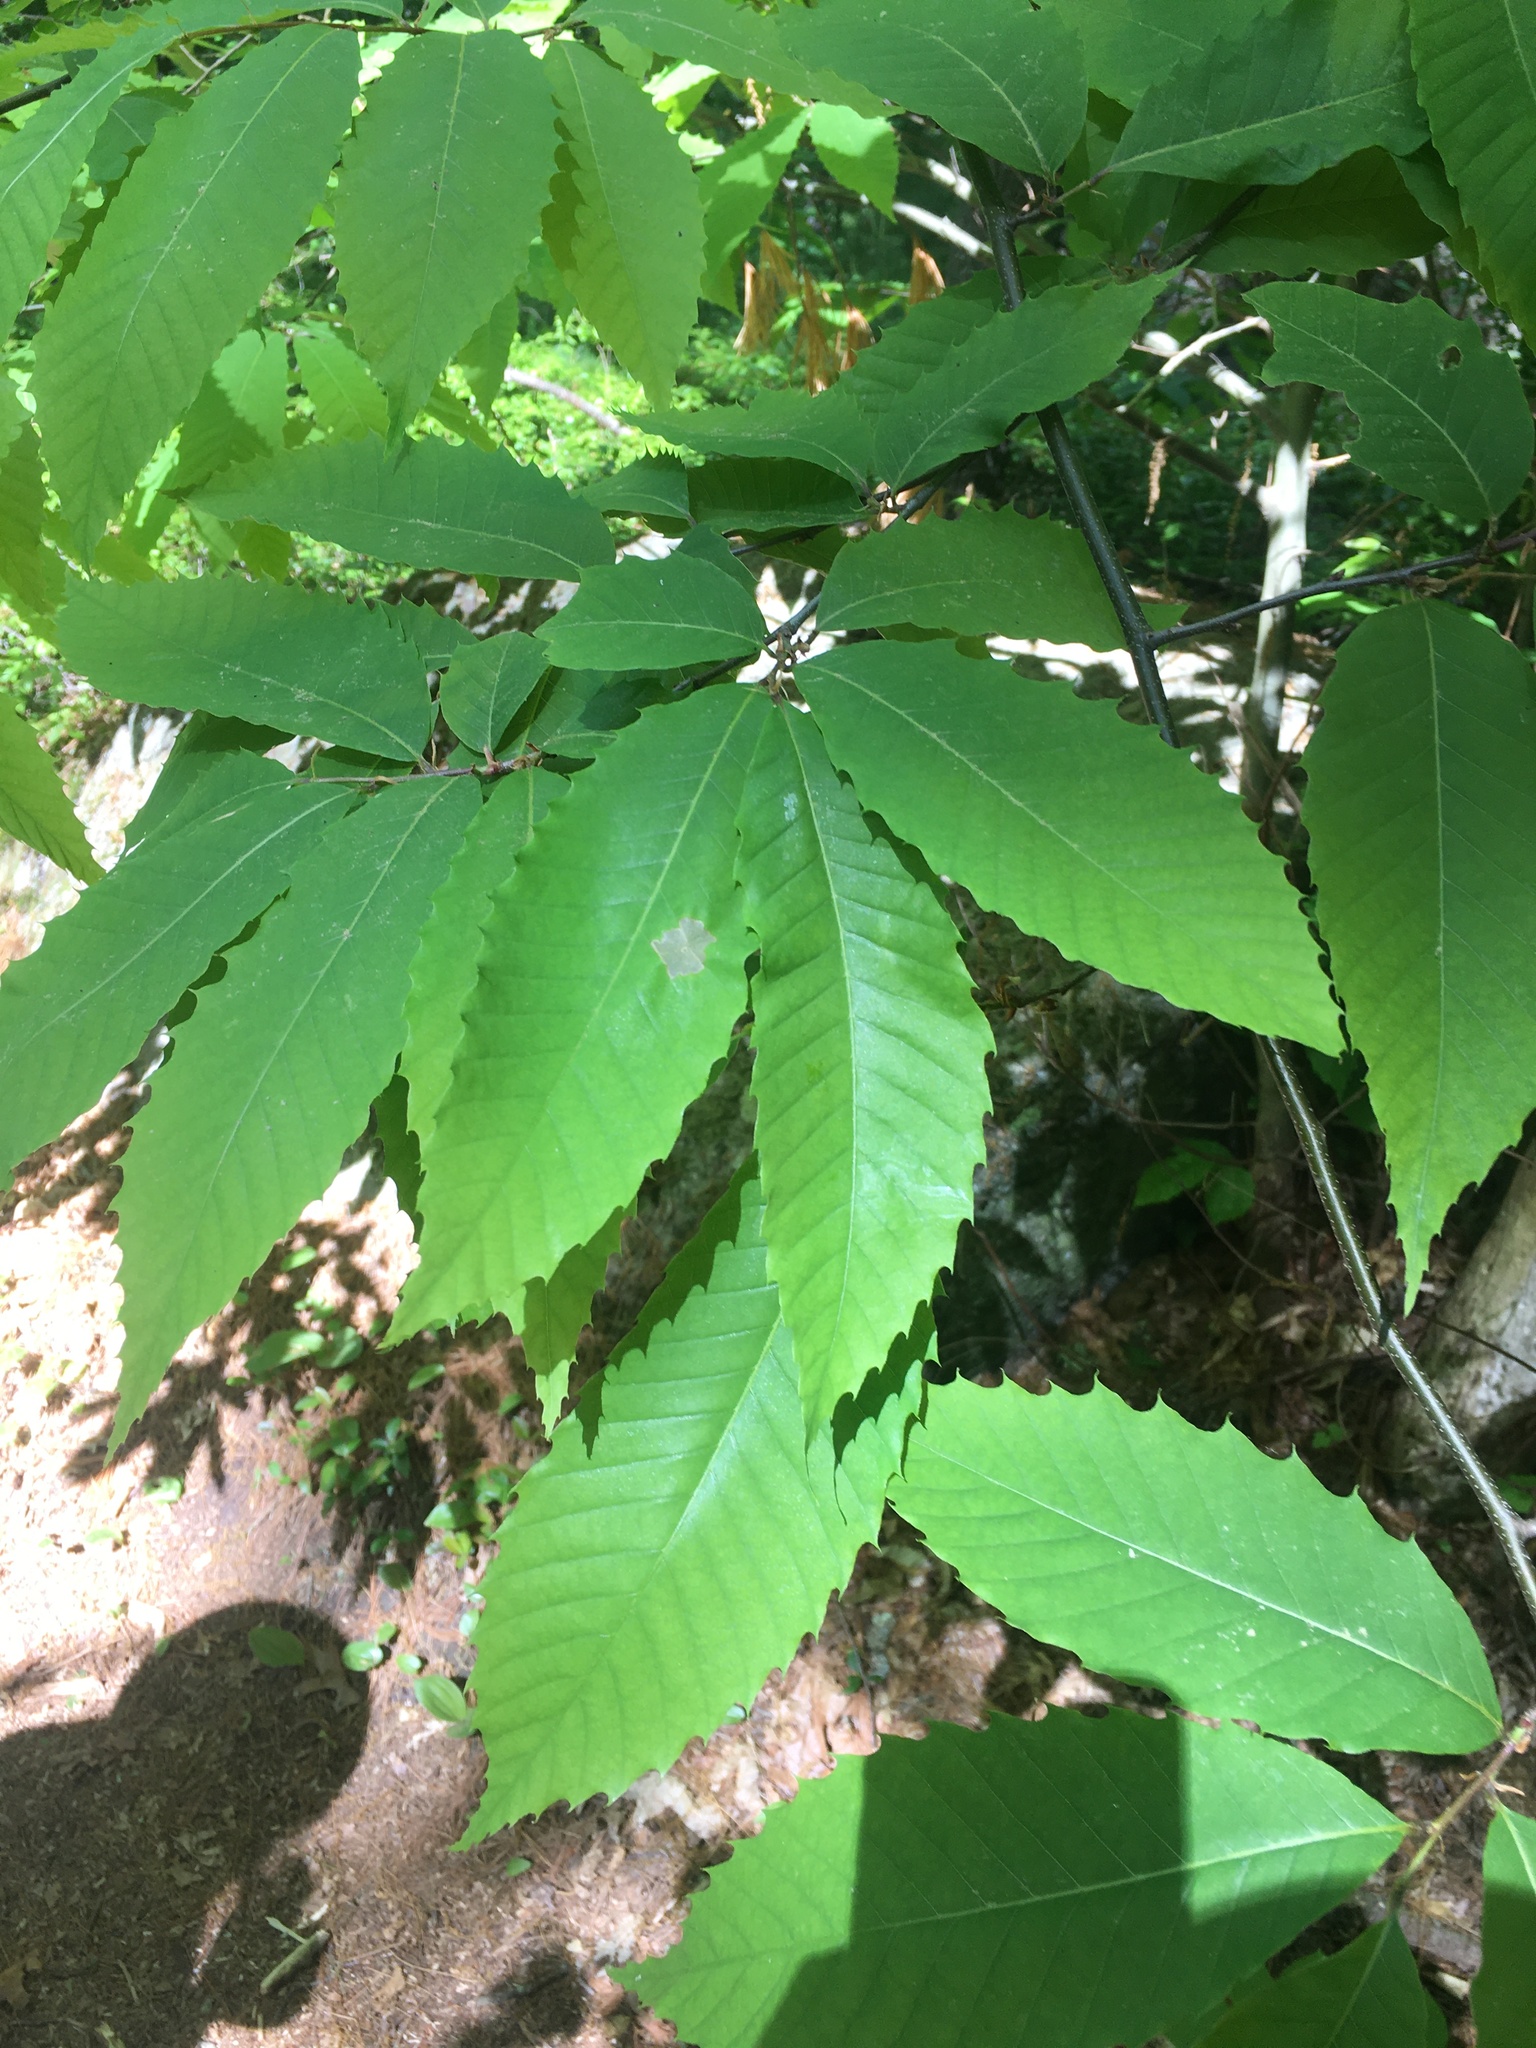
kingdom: Plantae
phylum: Tracheophyta
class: Magnoliopsida
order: Fagales
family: Fagaceae
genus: Castanea
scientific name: Castanea dentata
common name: American chestnut
